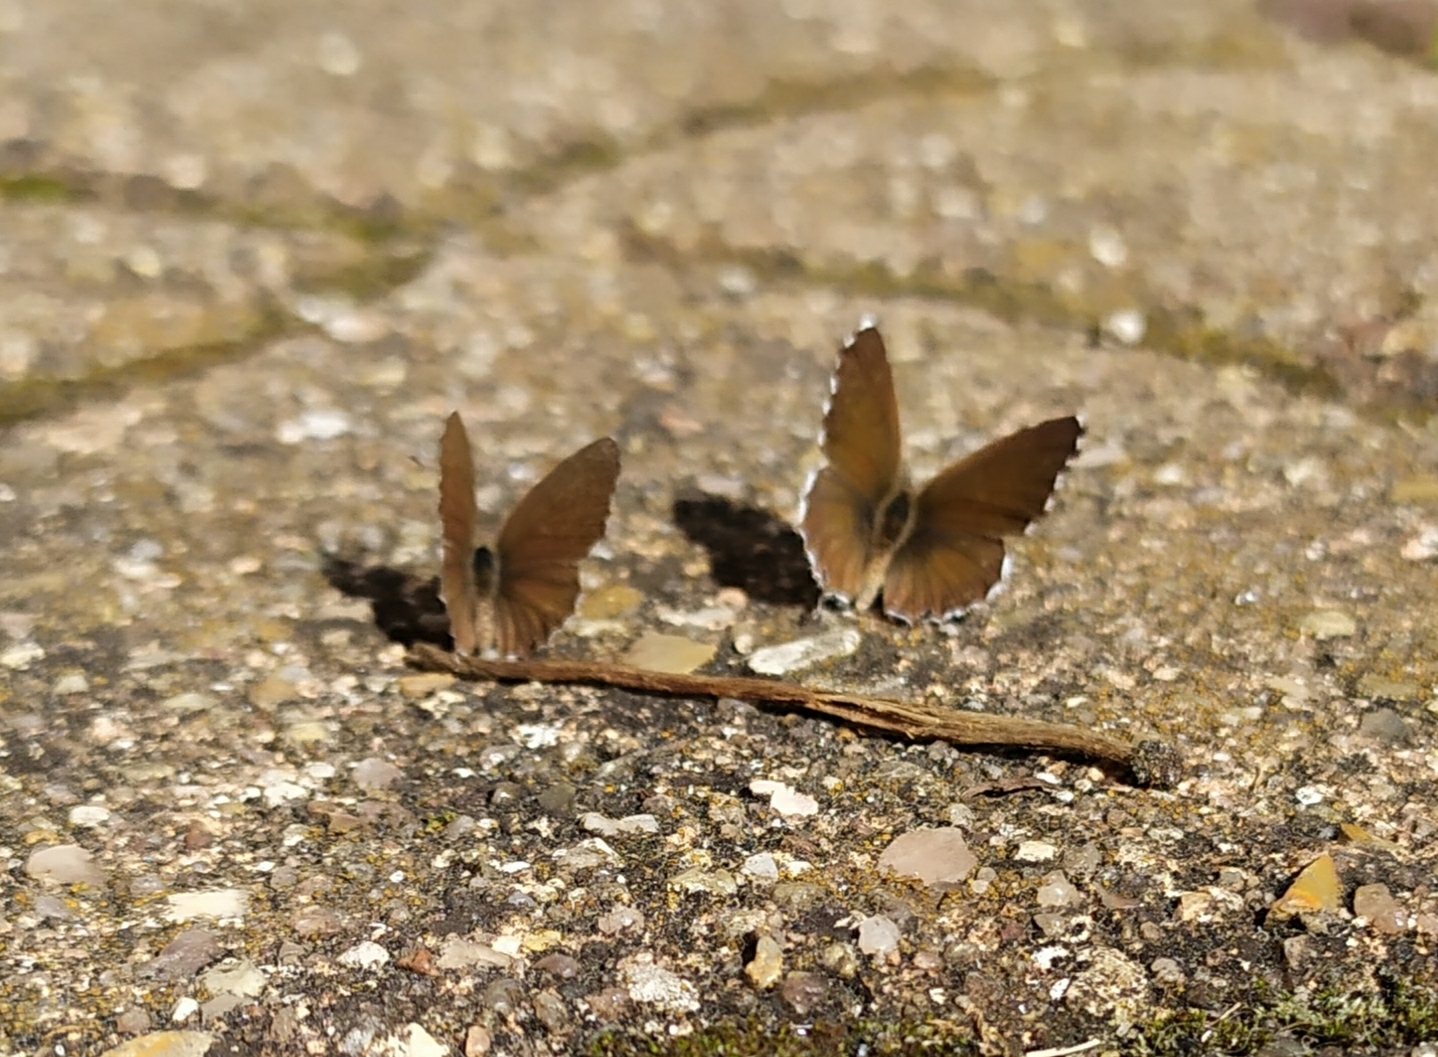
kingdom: Animalia
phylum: Arthropoda
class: Insecta
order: Lepidoptera
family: Lycaenidae
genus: Cacyreus
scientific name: Cacyreus marshalli
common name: Geranium bronze
